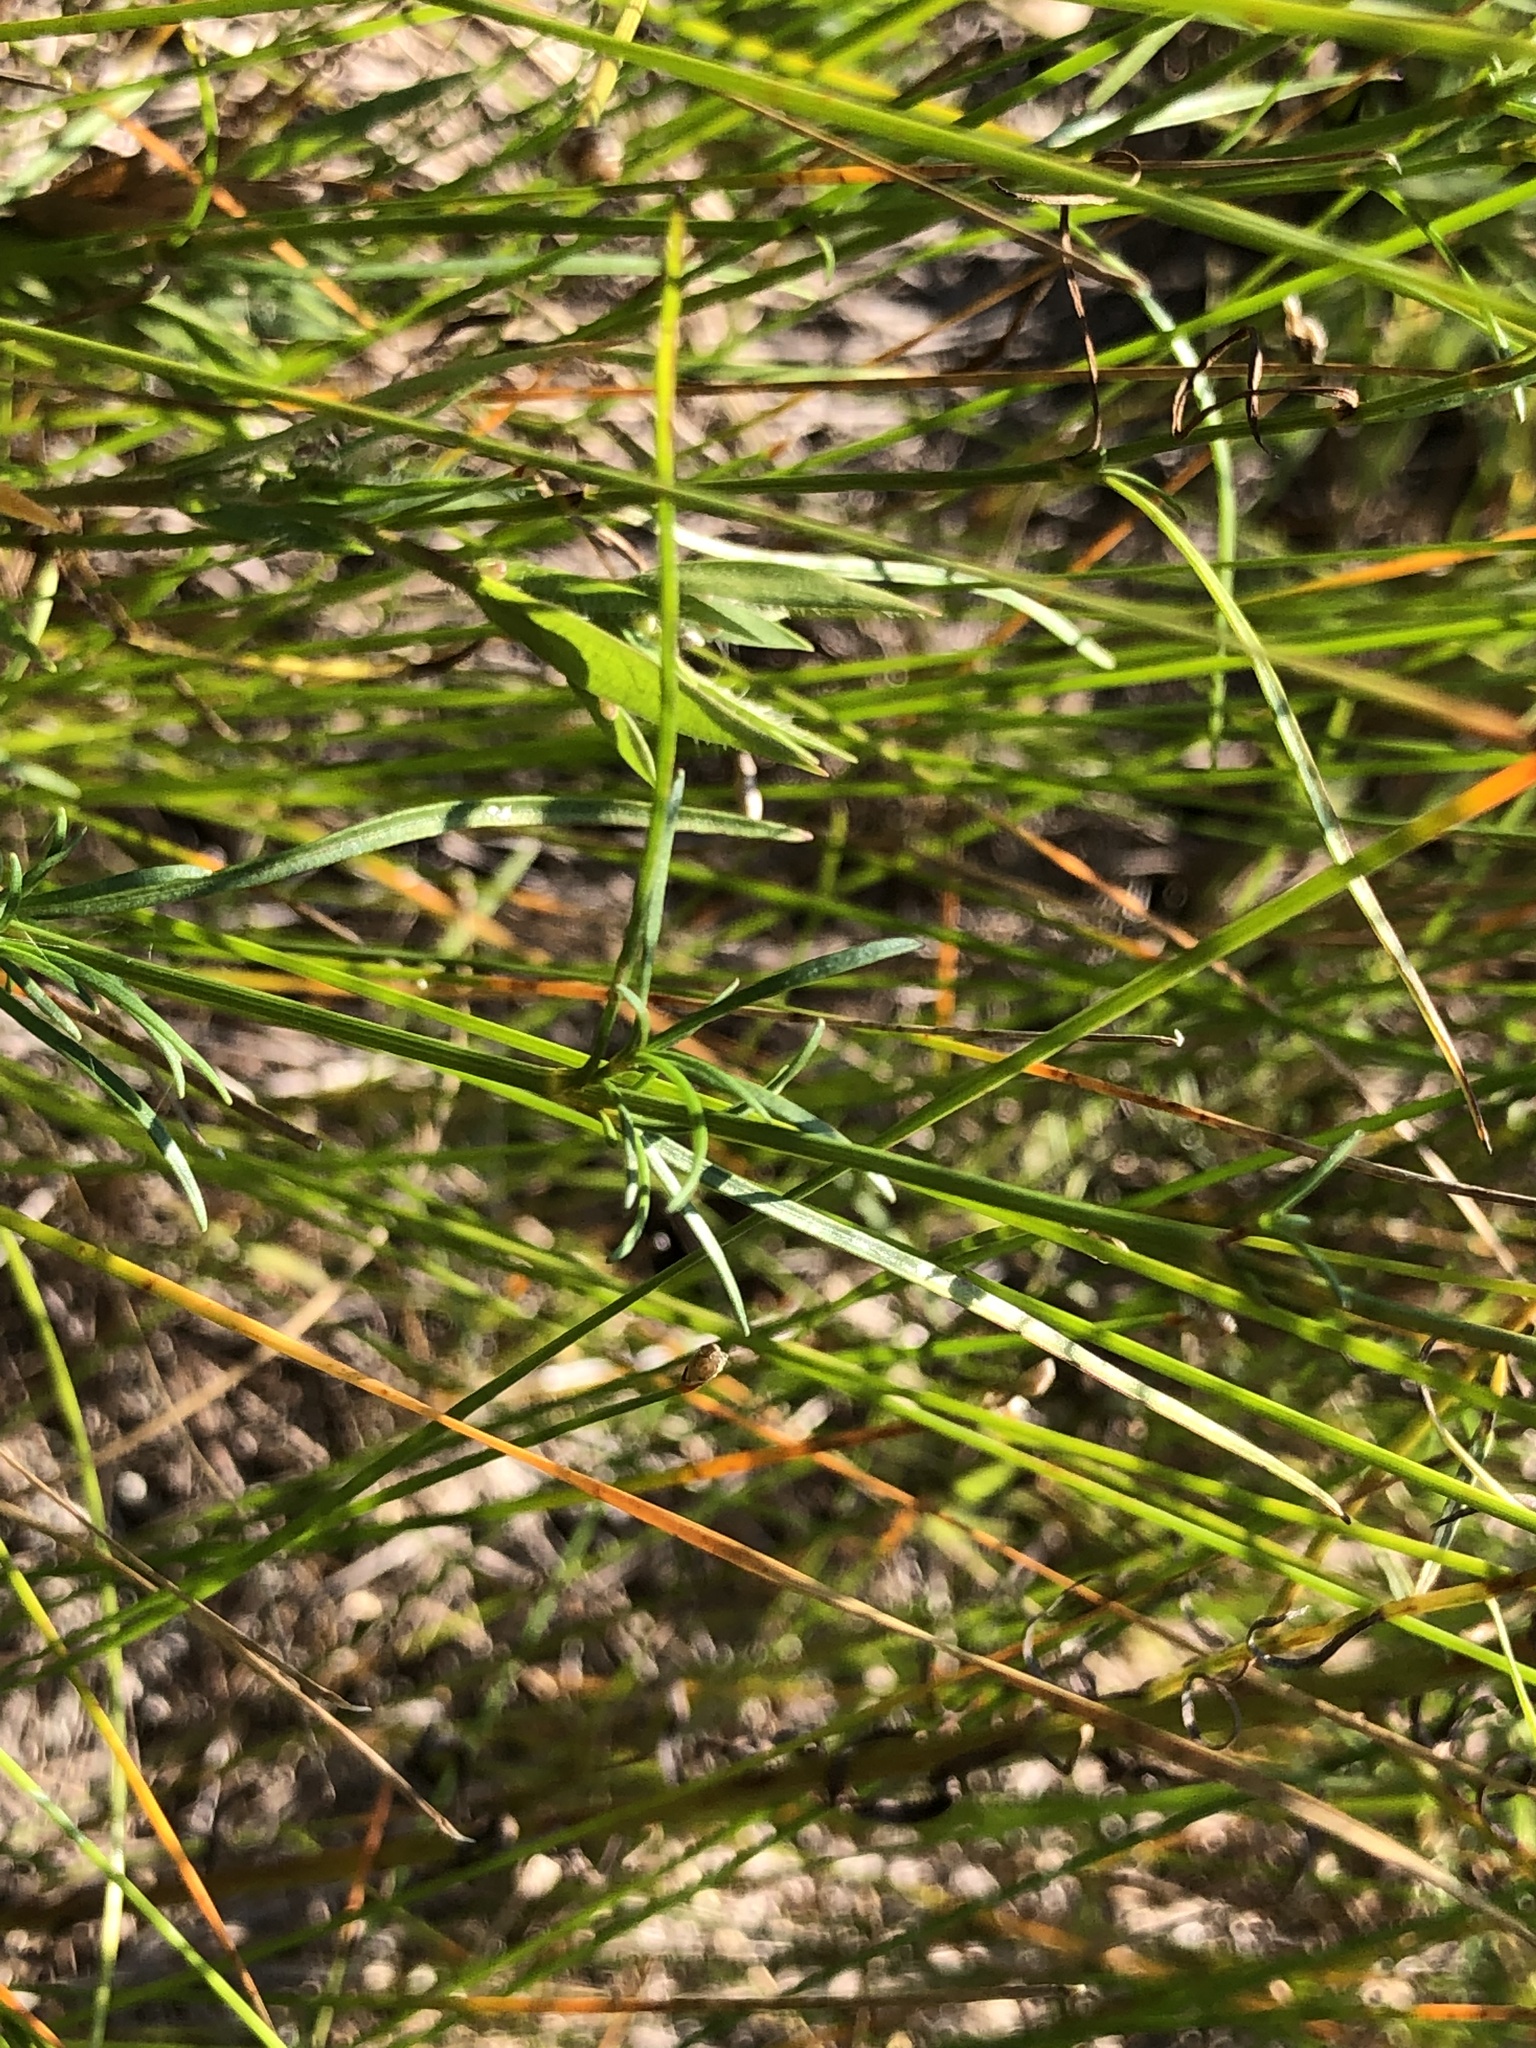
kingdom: Plantae
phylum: Tracheophyta
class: Magnoliopsida
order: Asterales
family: Asteraceae
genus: Coreopsis
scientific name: Coreopsis rosea
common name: Pink coreopsis
